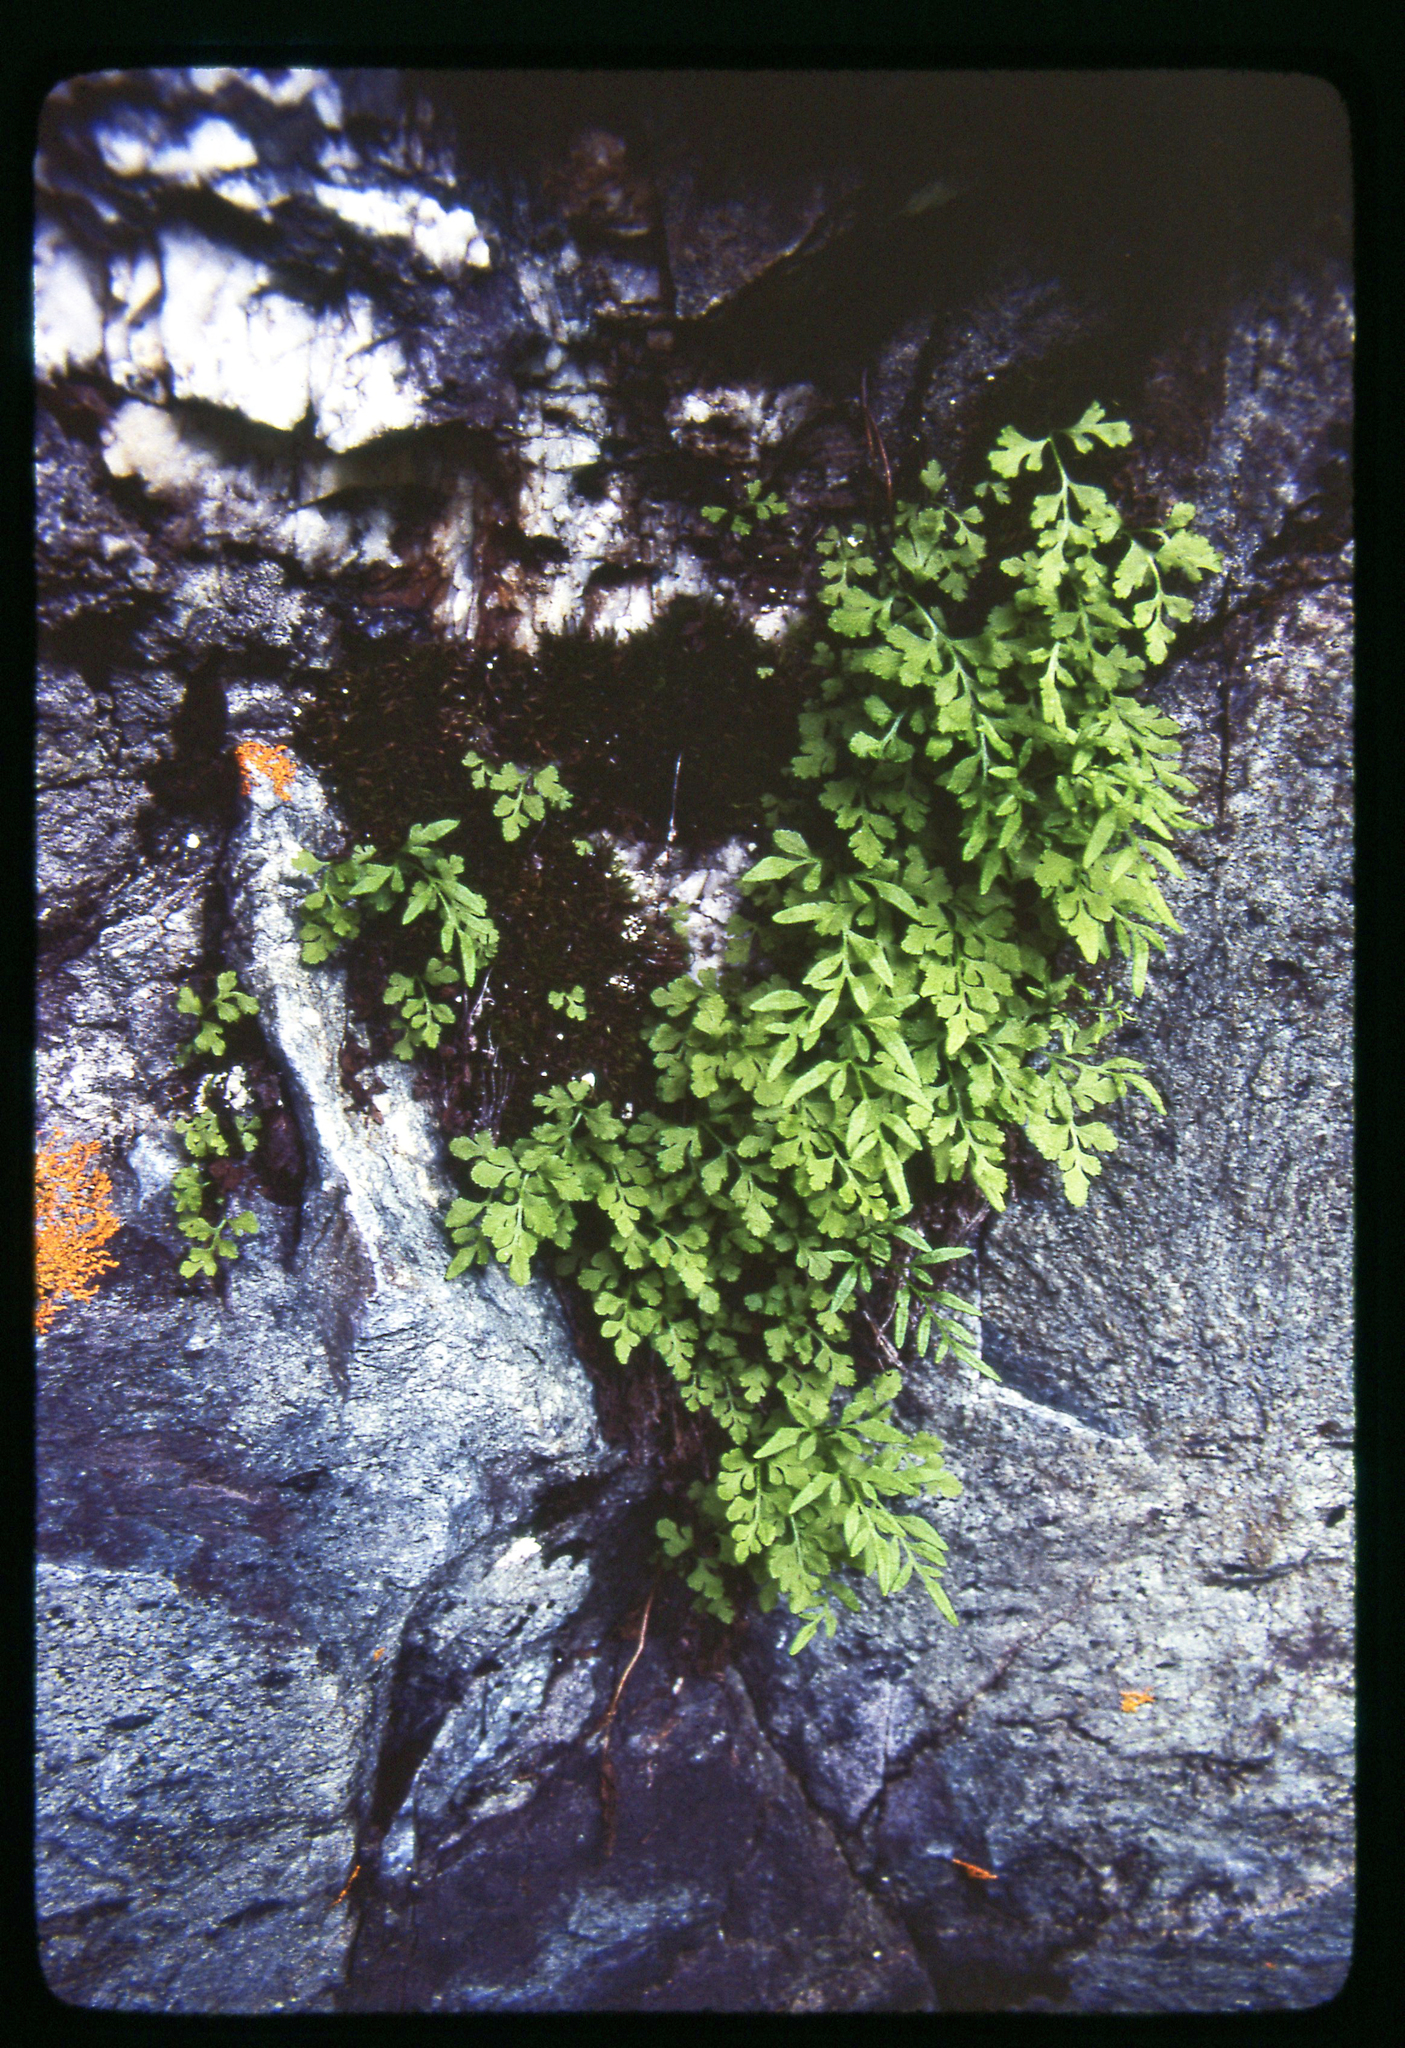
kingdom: Plantae
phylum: Tracheophyta
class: Polypodiopsida
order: Polypodiales
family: Pteridaceae
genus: Cryptogramma
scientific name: Cryptogramma stelleri
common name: Cliff-brake
